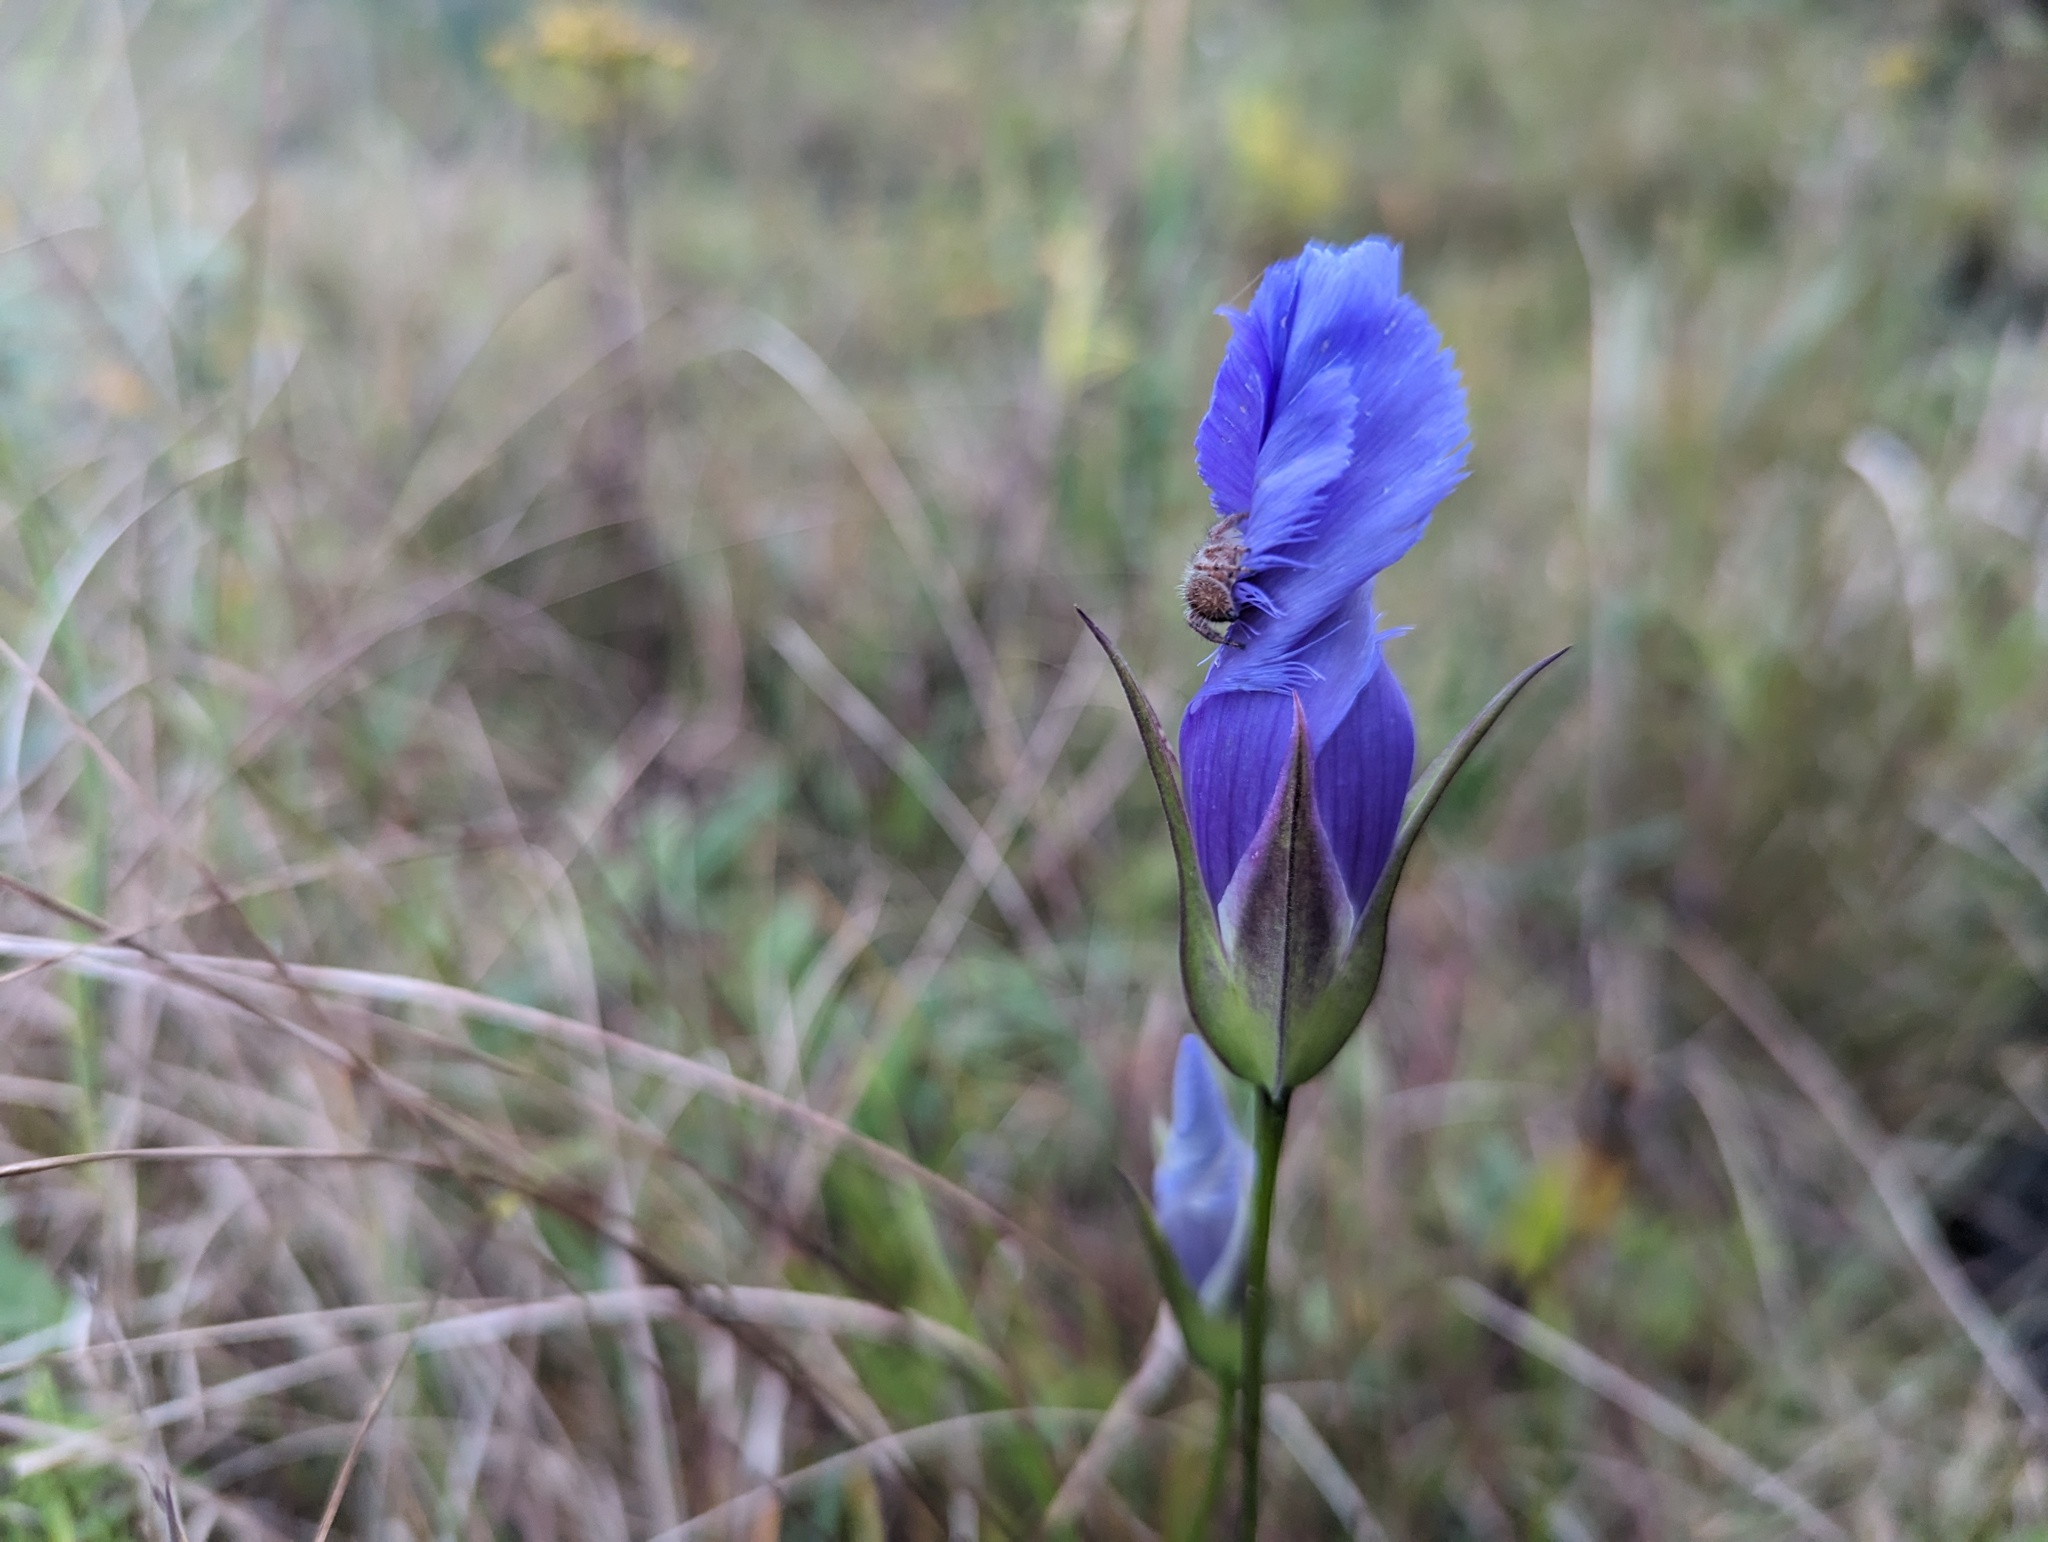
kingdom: Animalia
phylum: Arthropoda
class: Arachnida
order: Araneae
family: Salticidae
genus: Phidippus
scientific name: Phidippus princeps
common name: Grayish jumping spider
